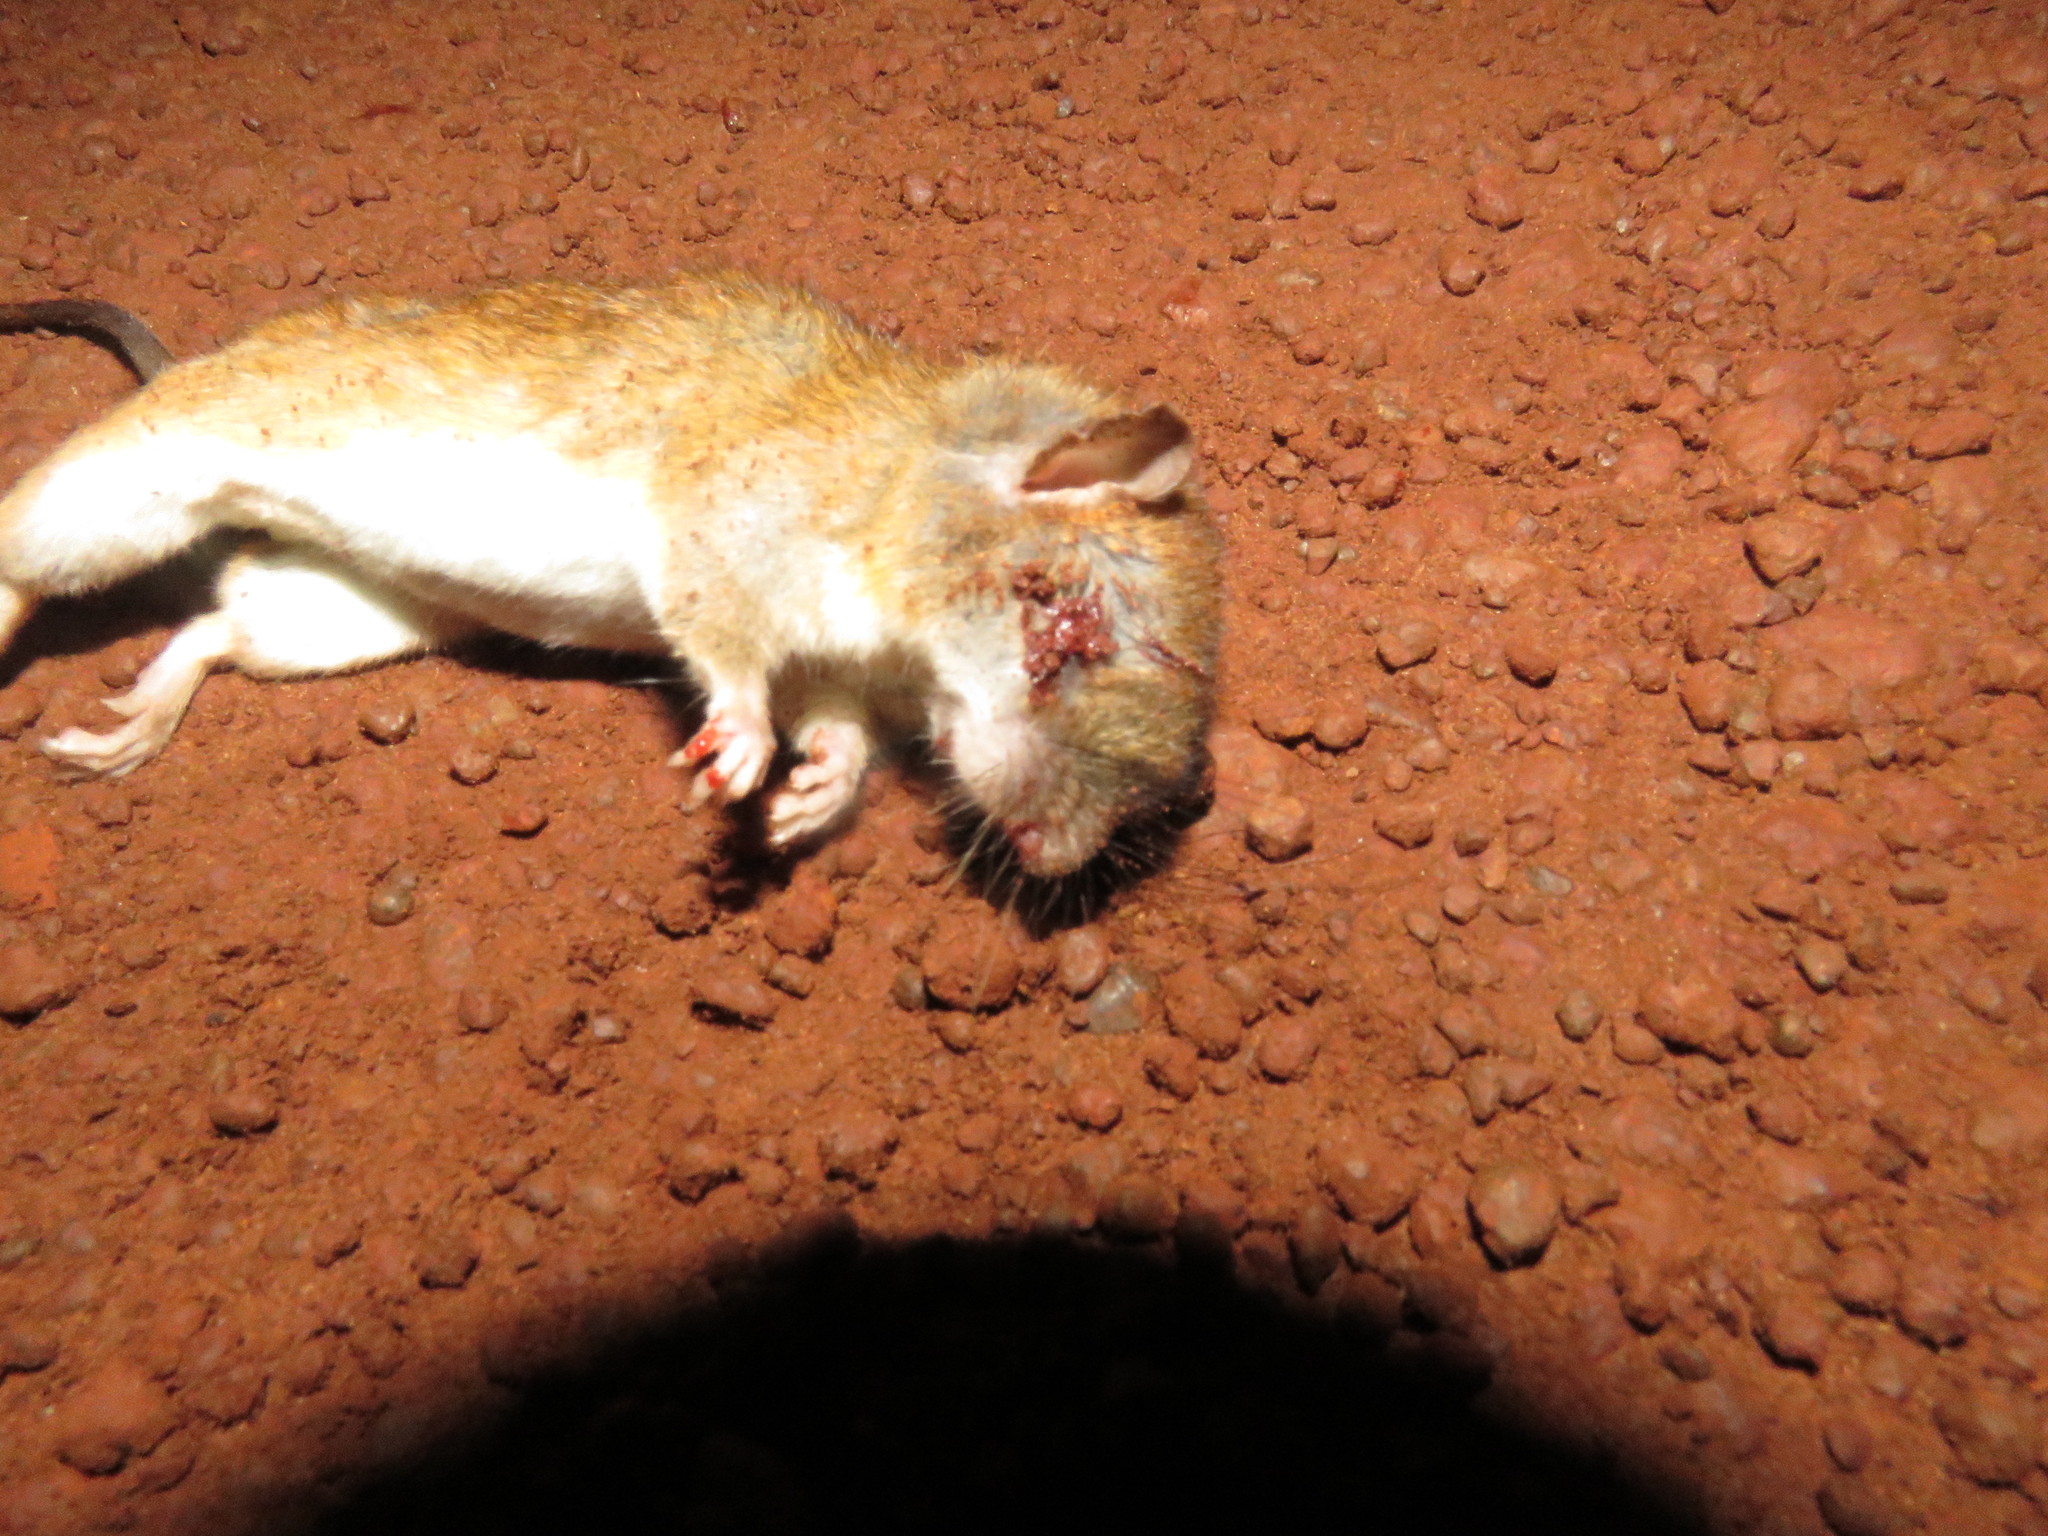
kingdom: Animalia
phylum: Chordata
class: Mammalia
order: Rodentia
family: Cricetidae
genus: Oecomys
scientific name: Oecomys bicolor
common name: White-bellied oecomys
